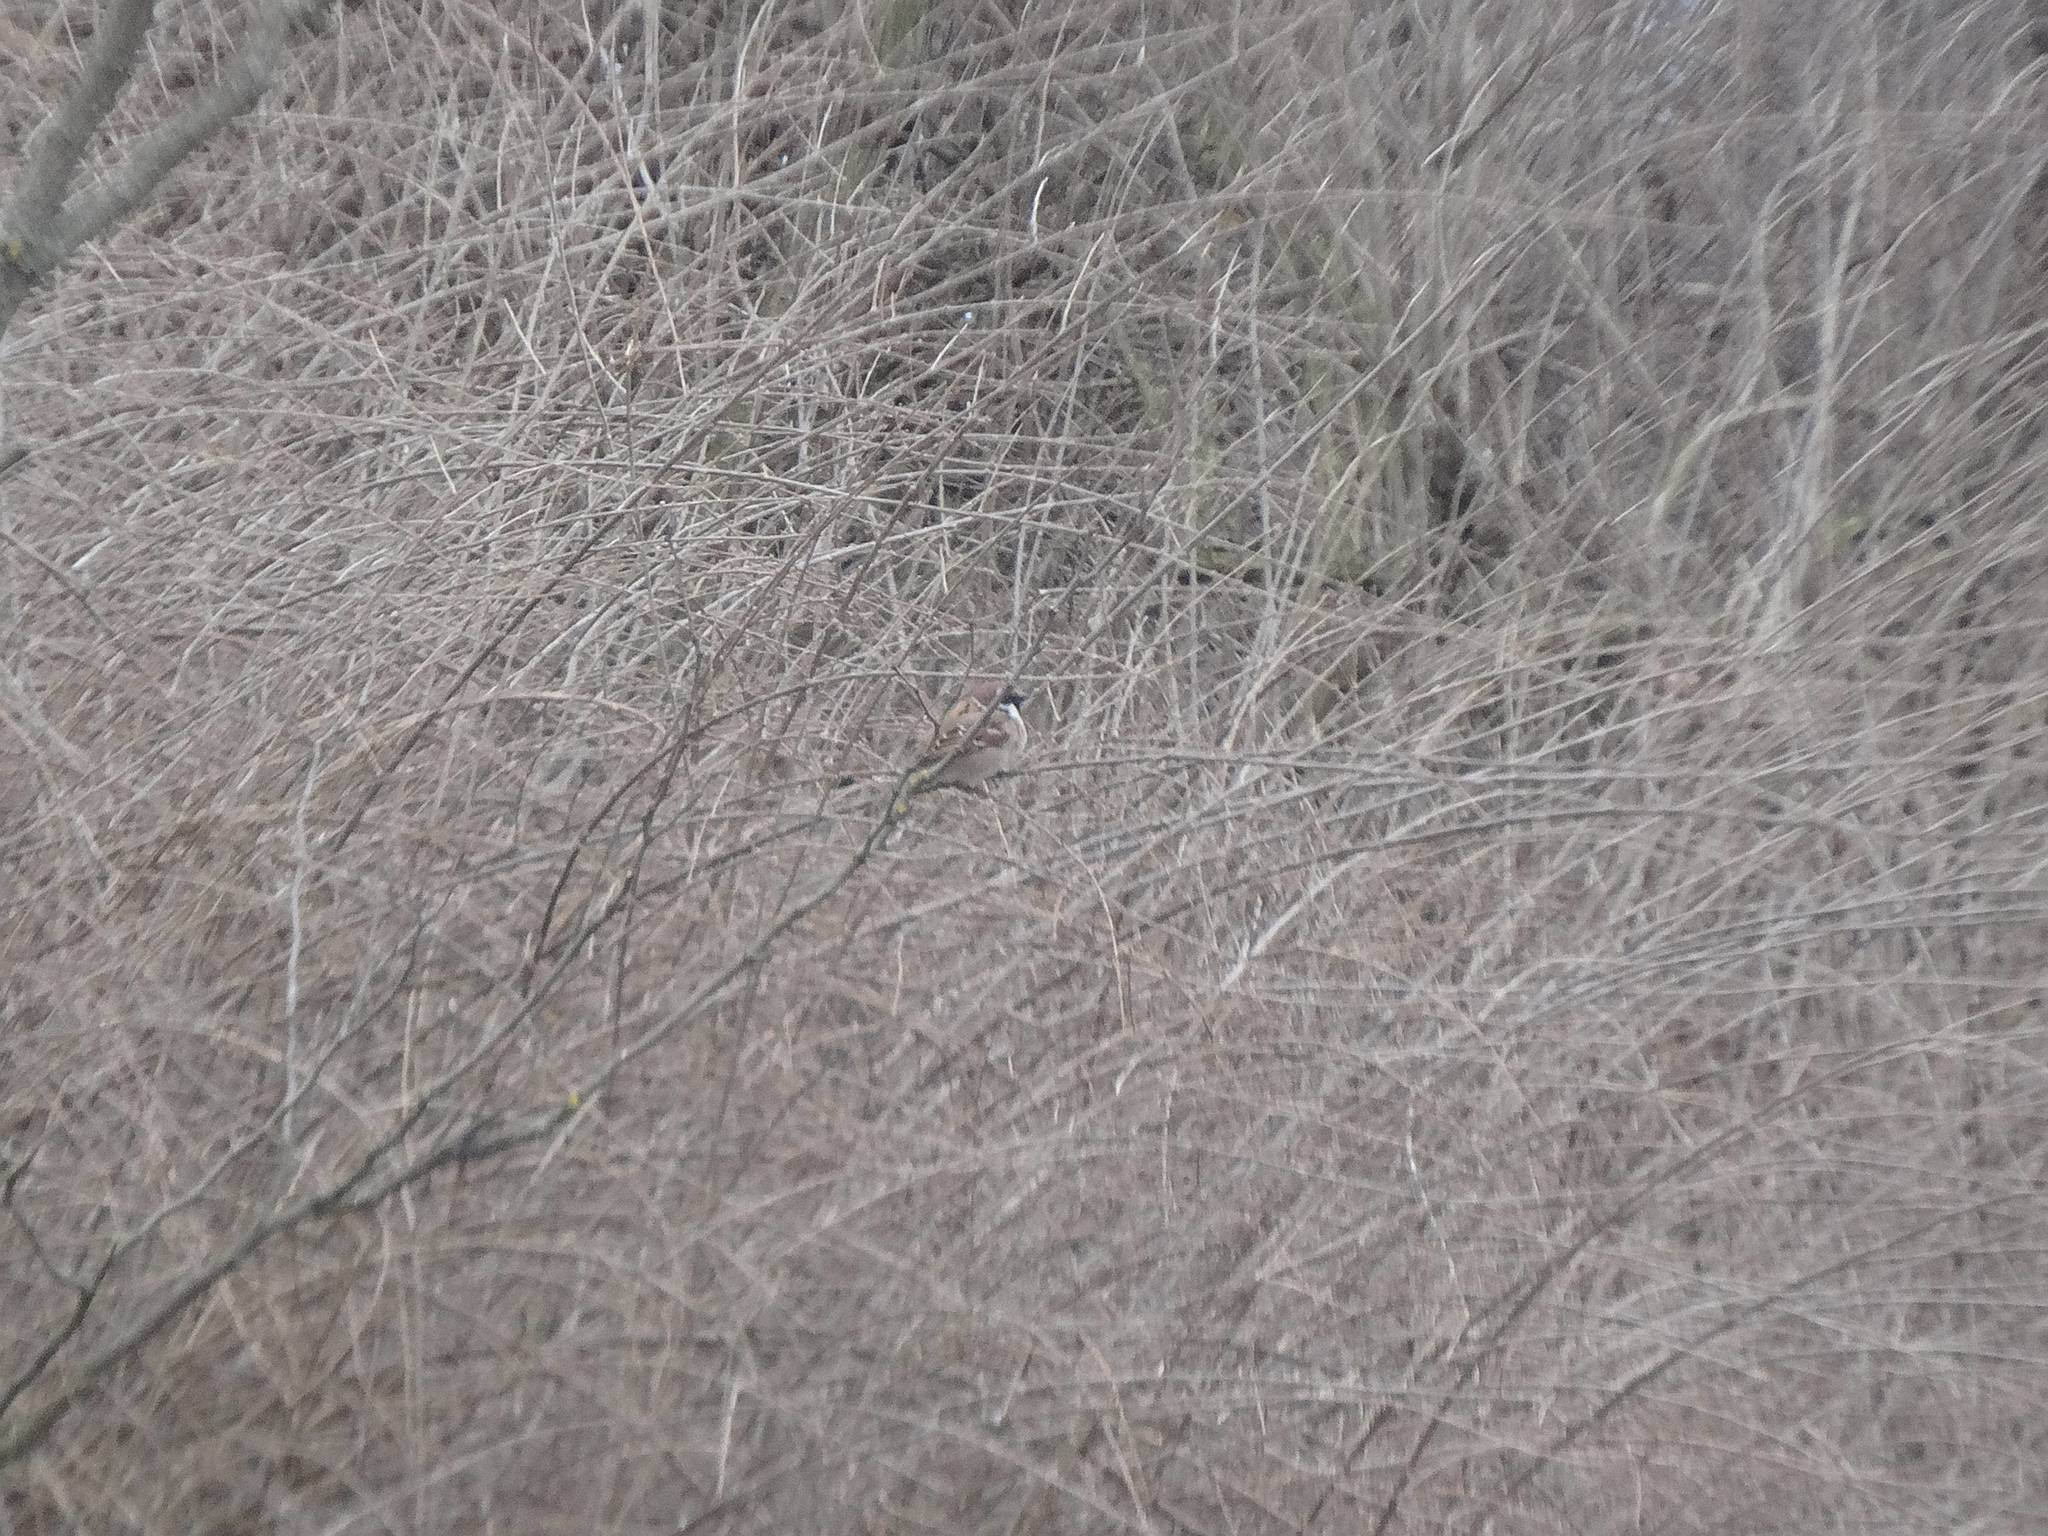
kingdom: Animalia
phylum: Chordata
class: Aves
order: Passeriformes
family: Passeridae
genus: Passer
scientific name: Passer montanus
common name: Eurasian tree sparrow
